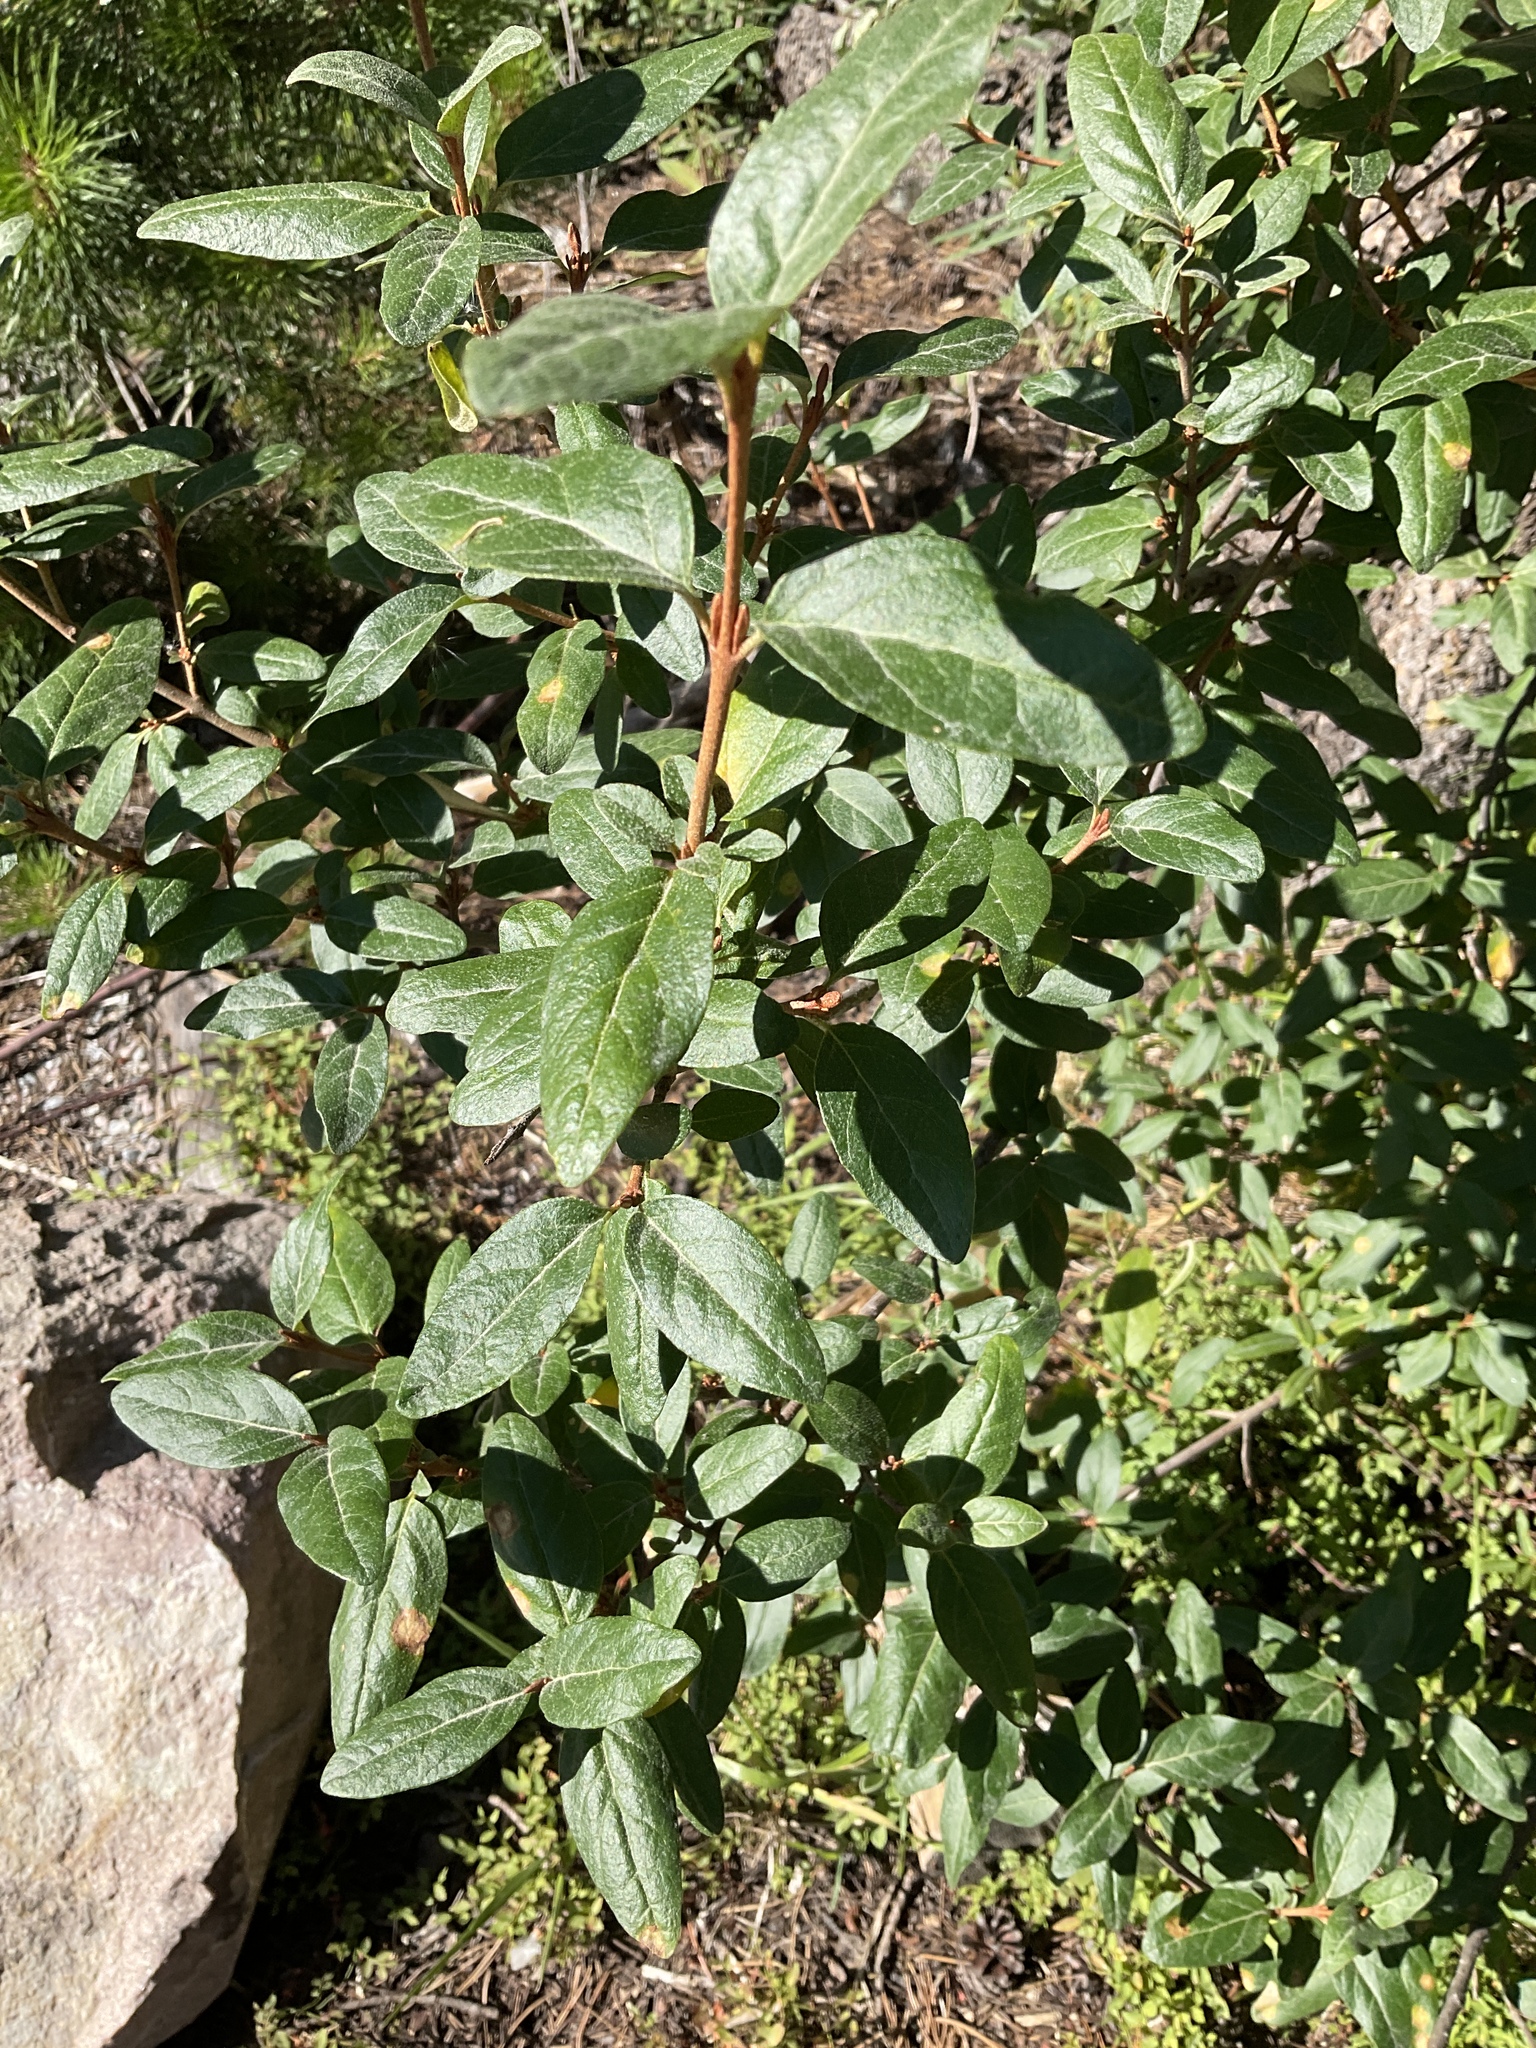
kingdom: Plantae
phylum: Tracheophyta
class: Magnoliopsida
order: Rosales
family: Elaeagnaceae
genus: Shepherdia
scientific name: Shepherdia canadensis
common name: Soapberry
